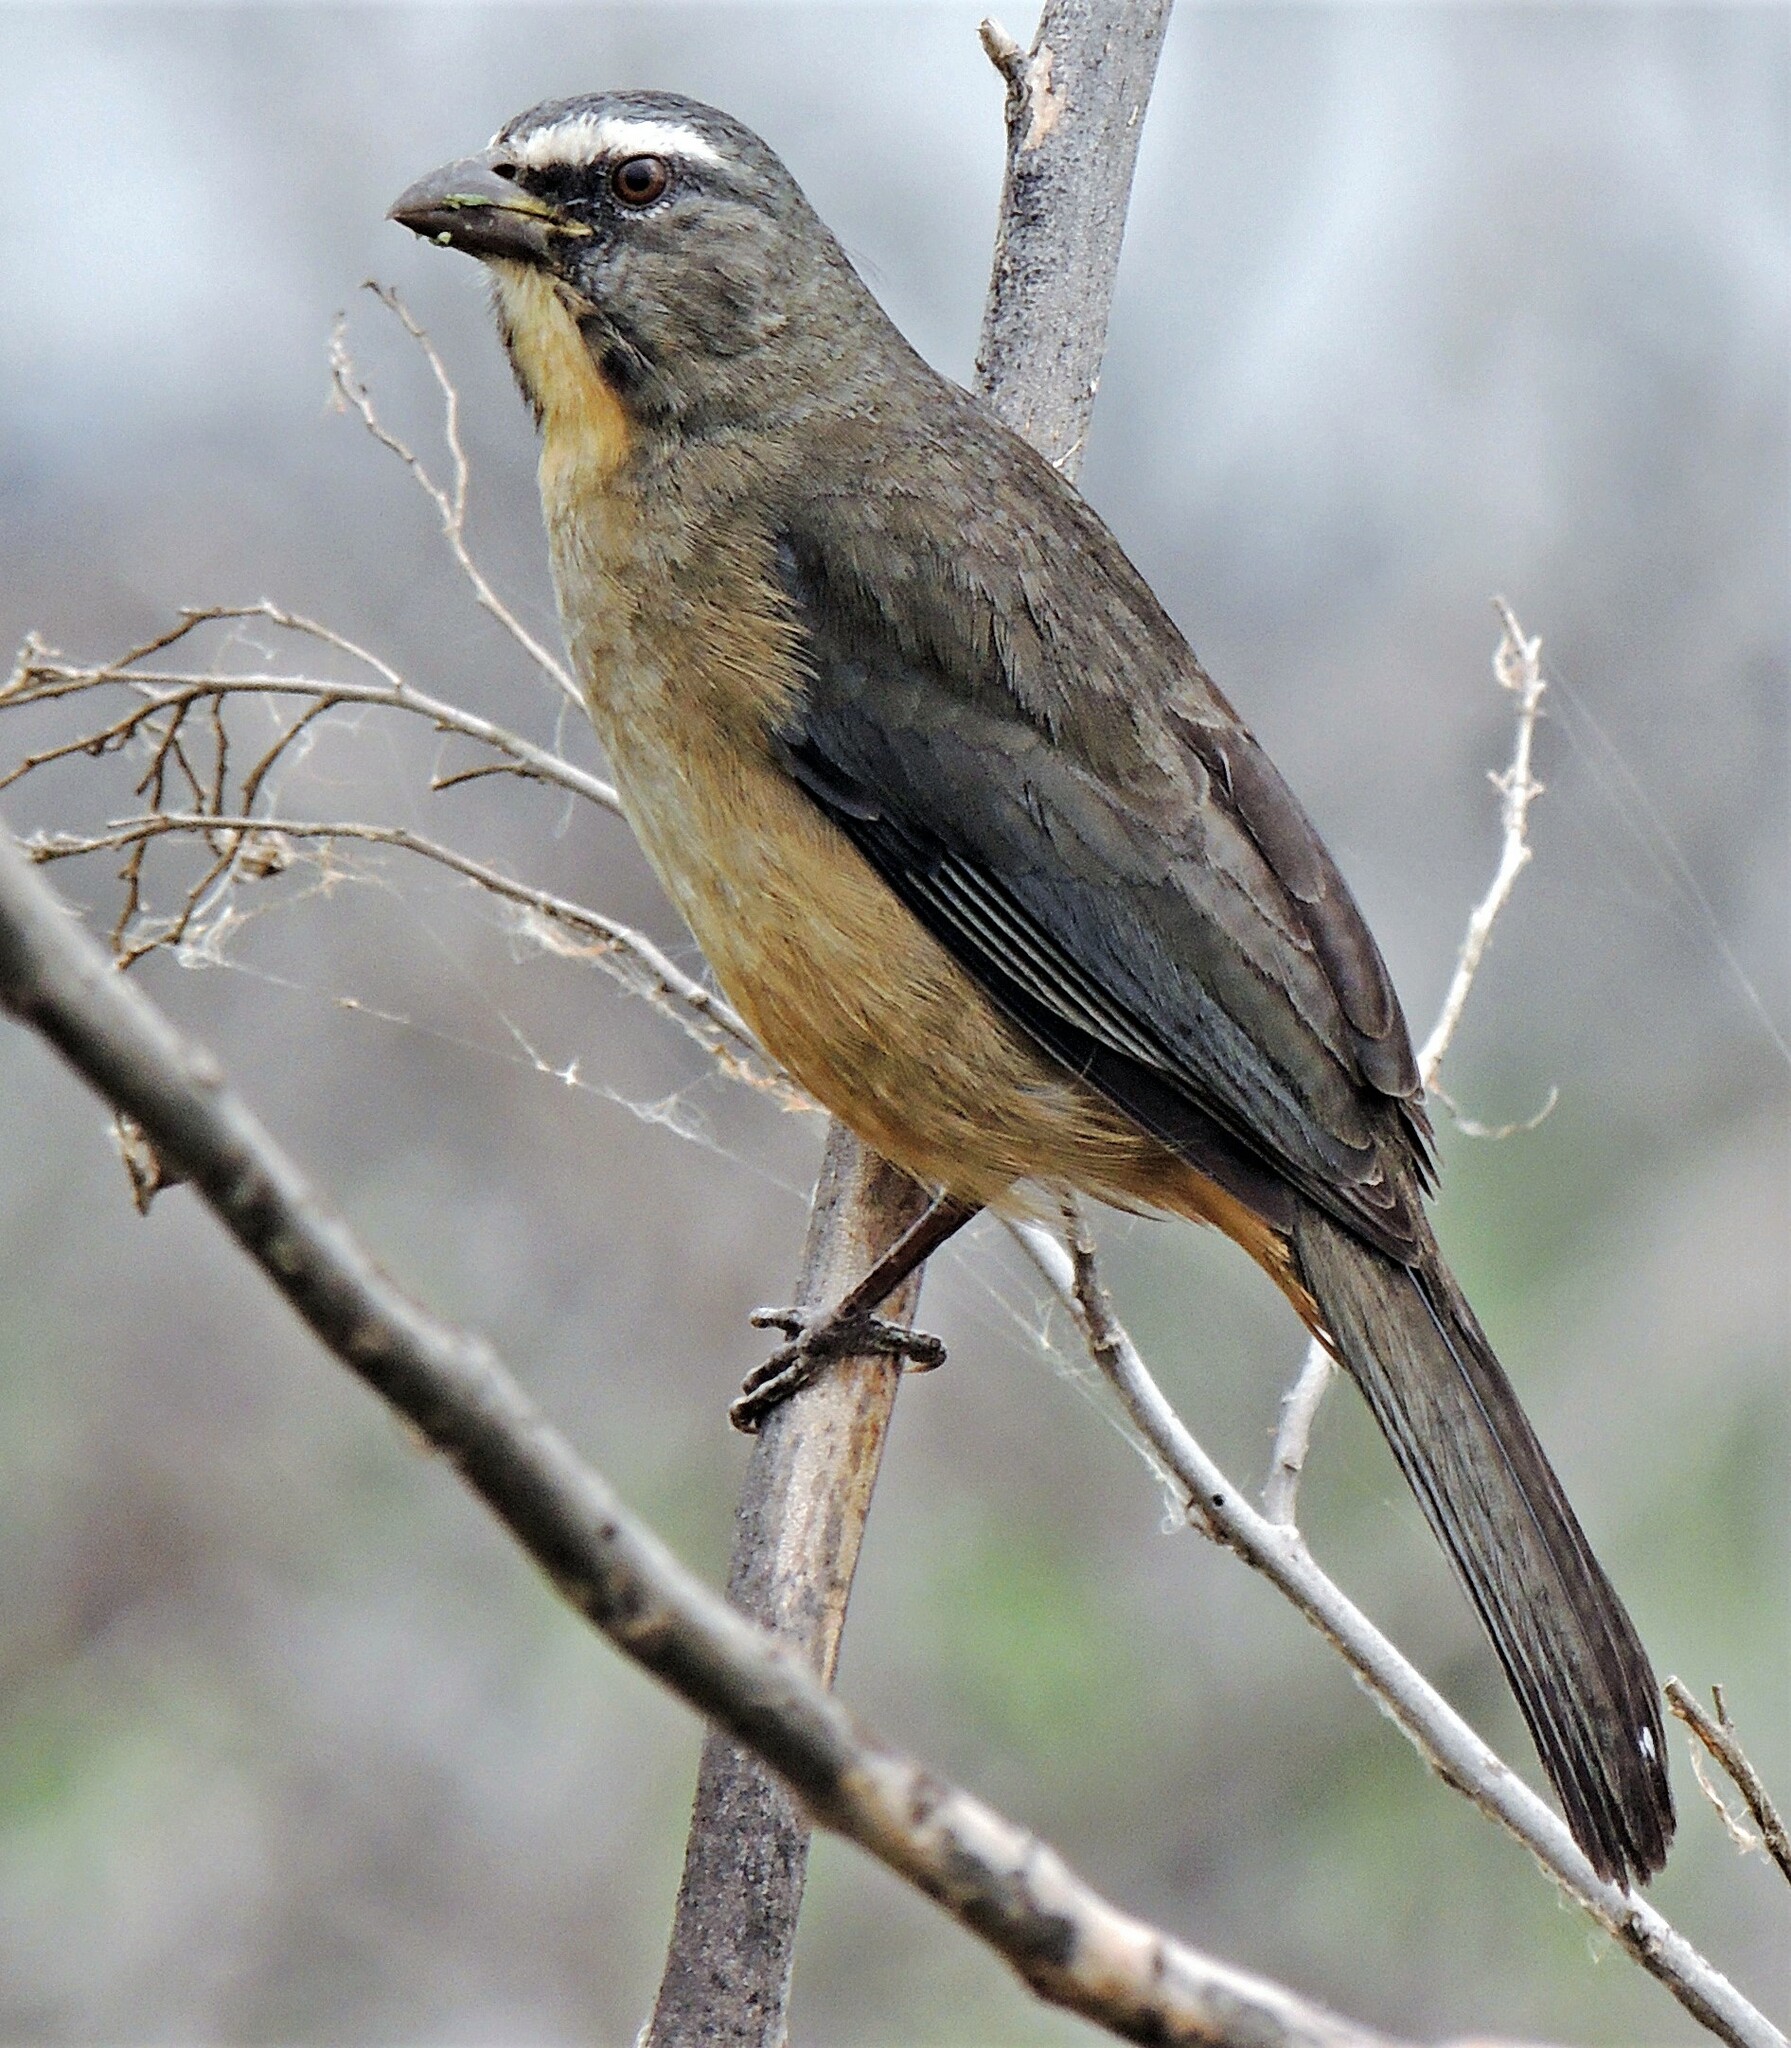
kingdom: Animalia
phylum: Chordata
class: Aves
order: Passeriformes
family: Thraupidae
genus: Saltator
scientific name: Saltator coerulescens
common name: Grayish saltator
